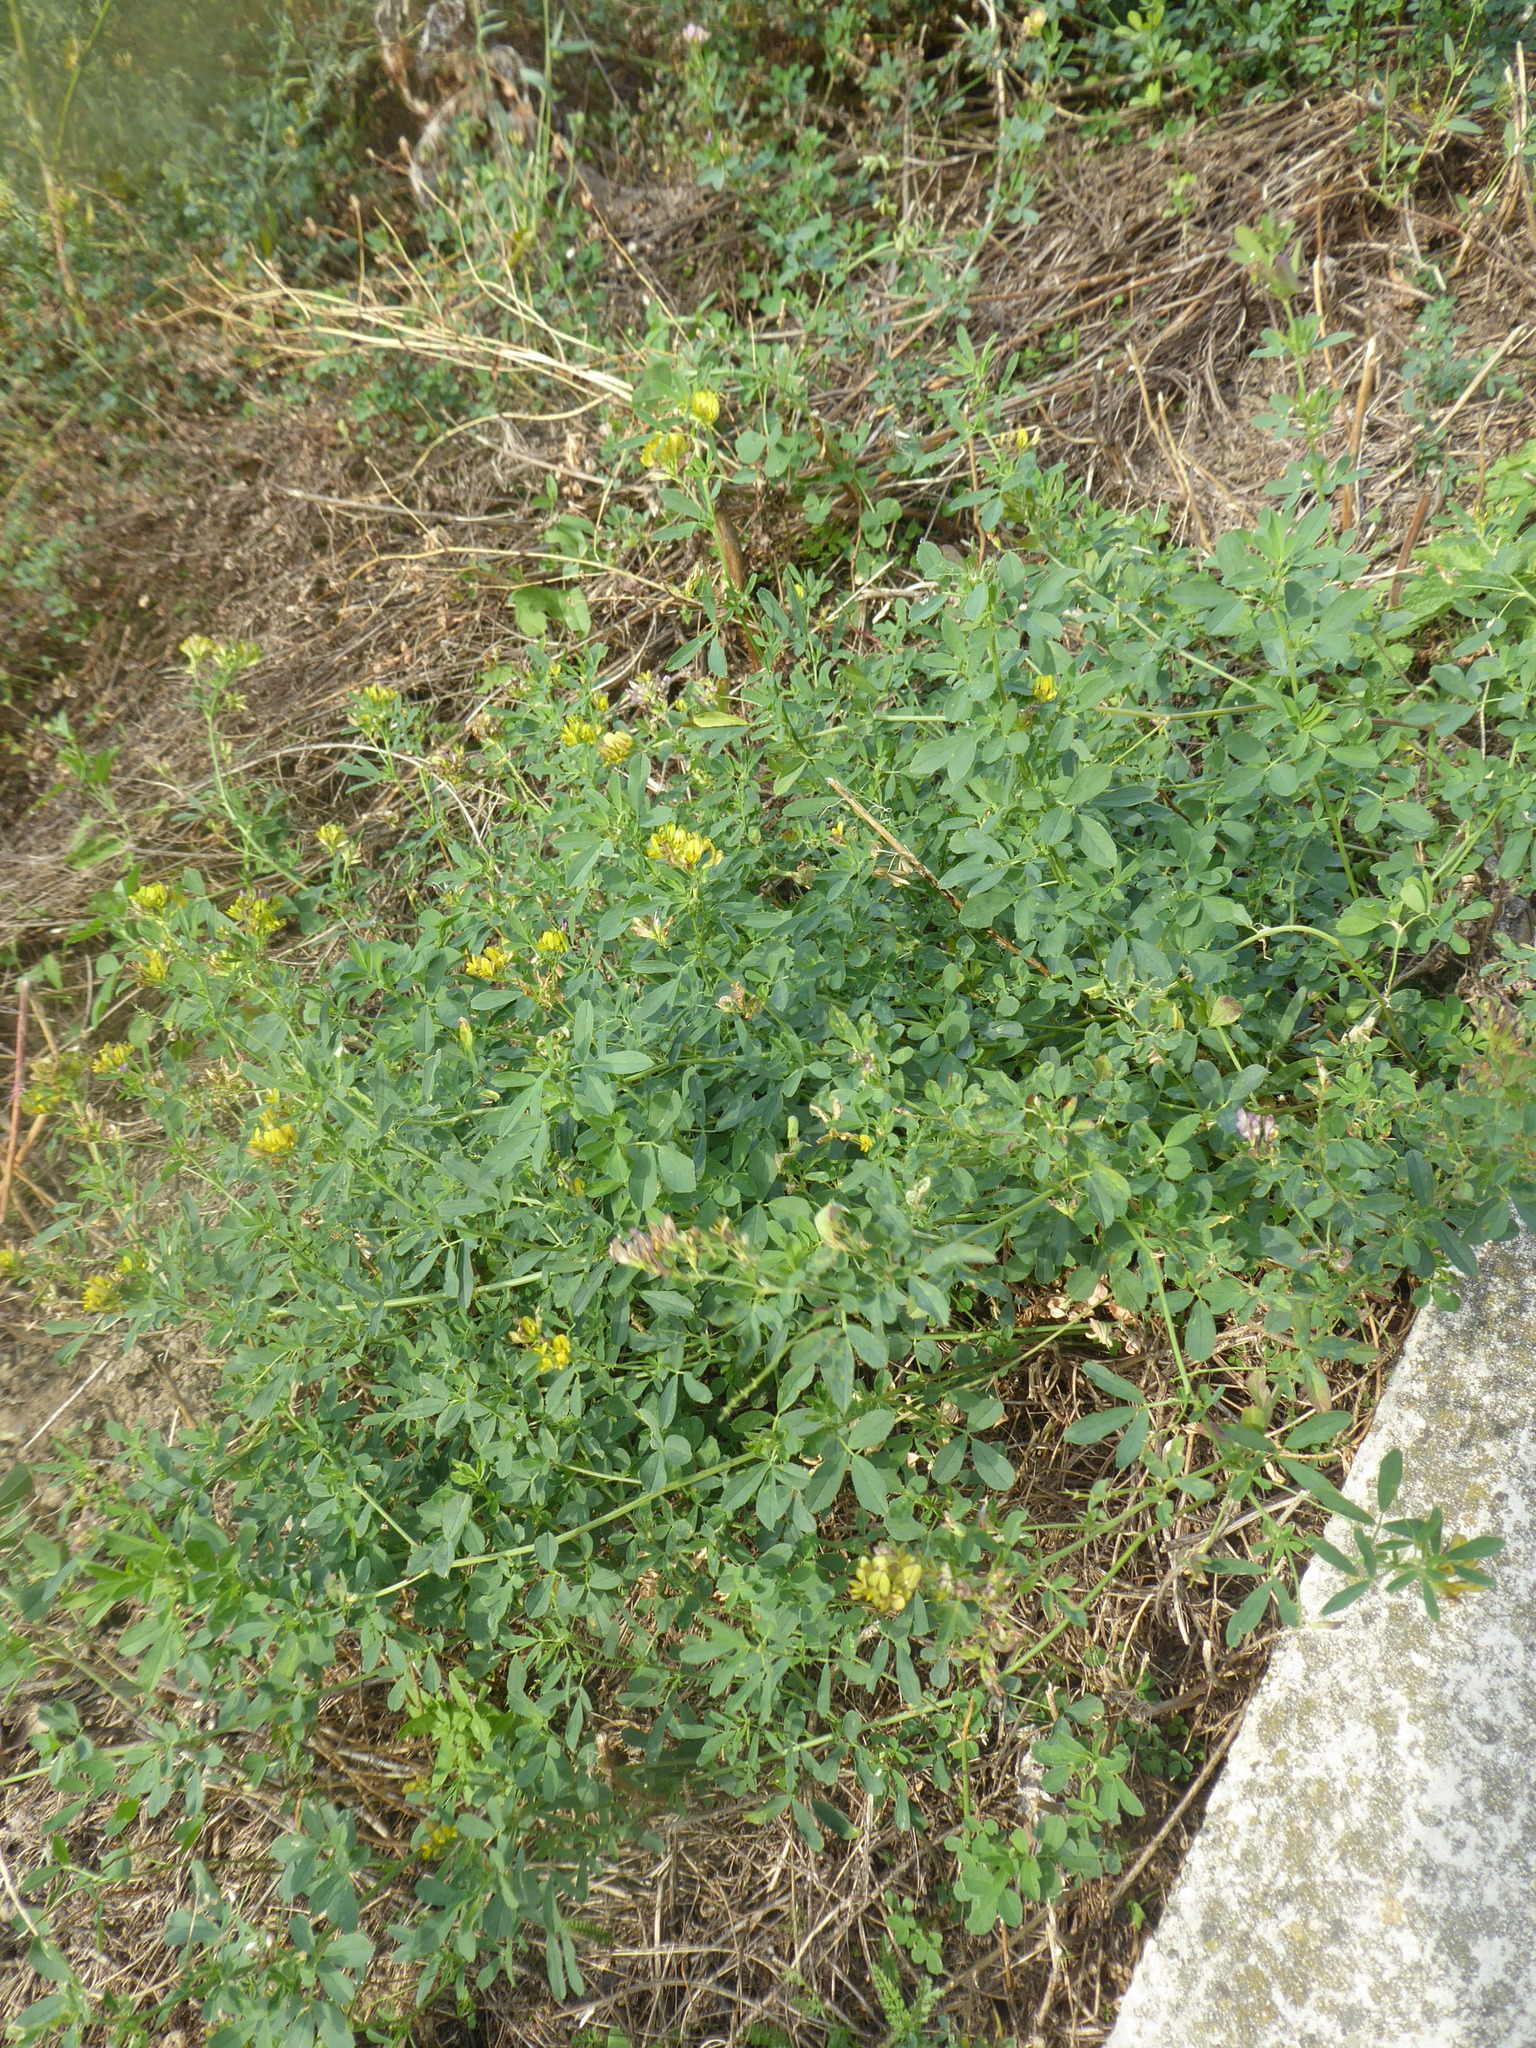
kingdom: Plantae
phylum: Tracheophyta
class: Magnoliopsida
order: Fabales
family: Fabaceae
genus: Medicago
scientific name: Medicago varia
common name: Sand lucerne
